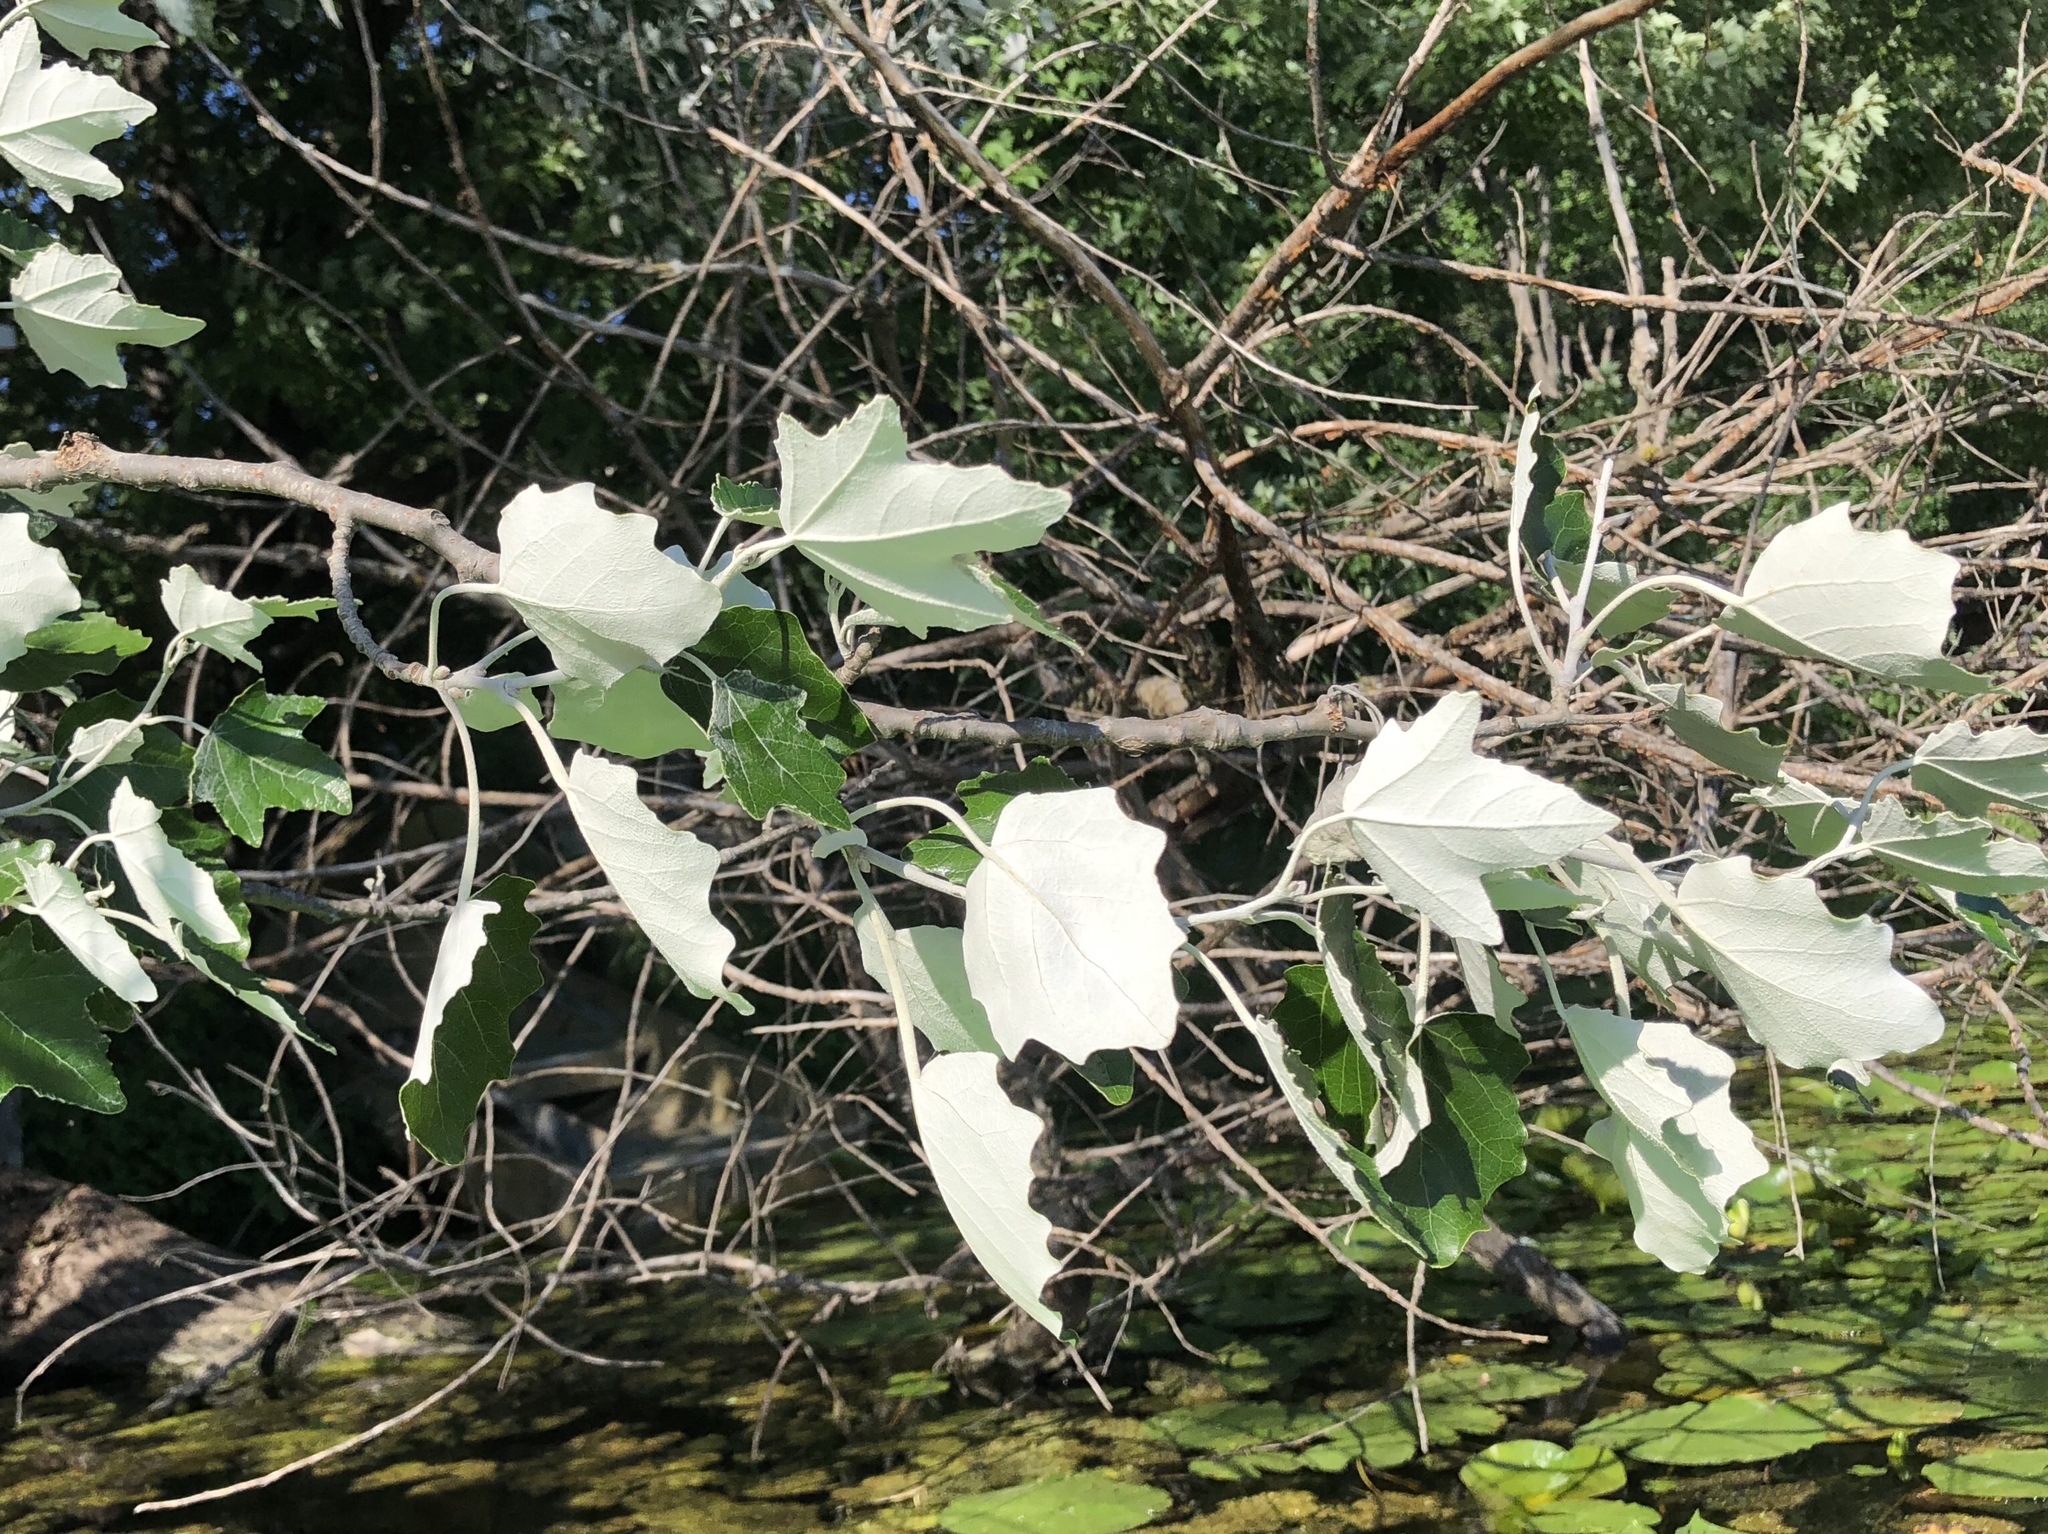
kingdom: Plantae
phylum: Tracheophyta
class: Magnoliopsida
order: Malpighiales
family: Salicaceae
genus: Populus
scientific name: Populus alba
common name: White poplar
